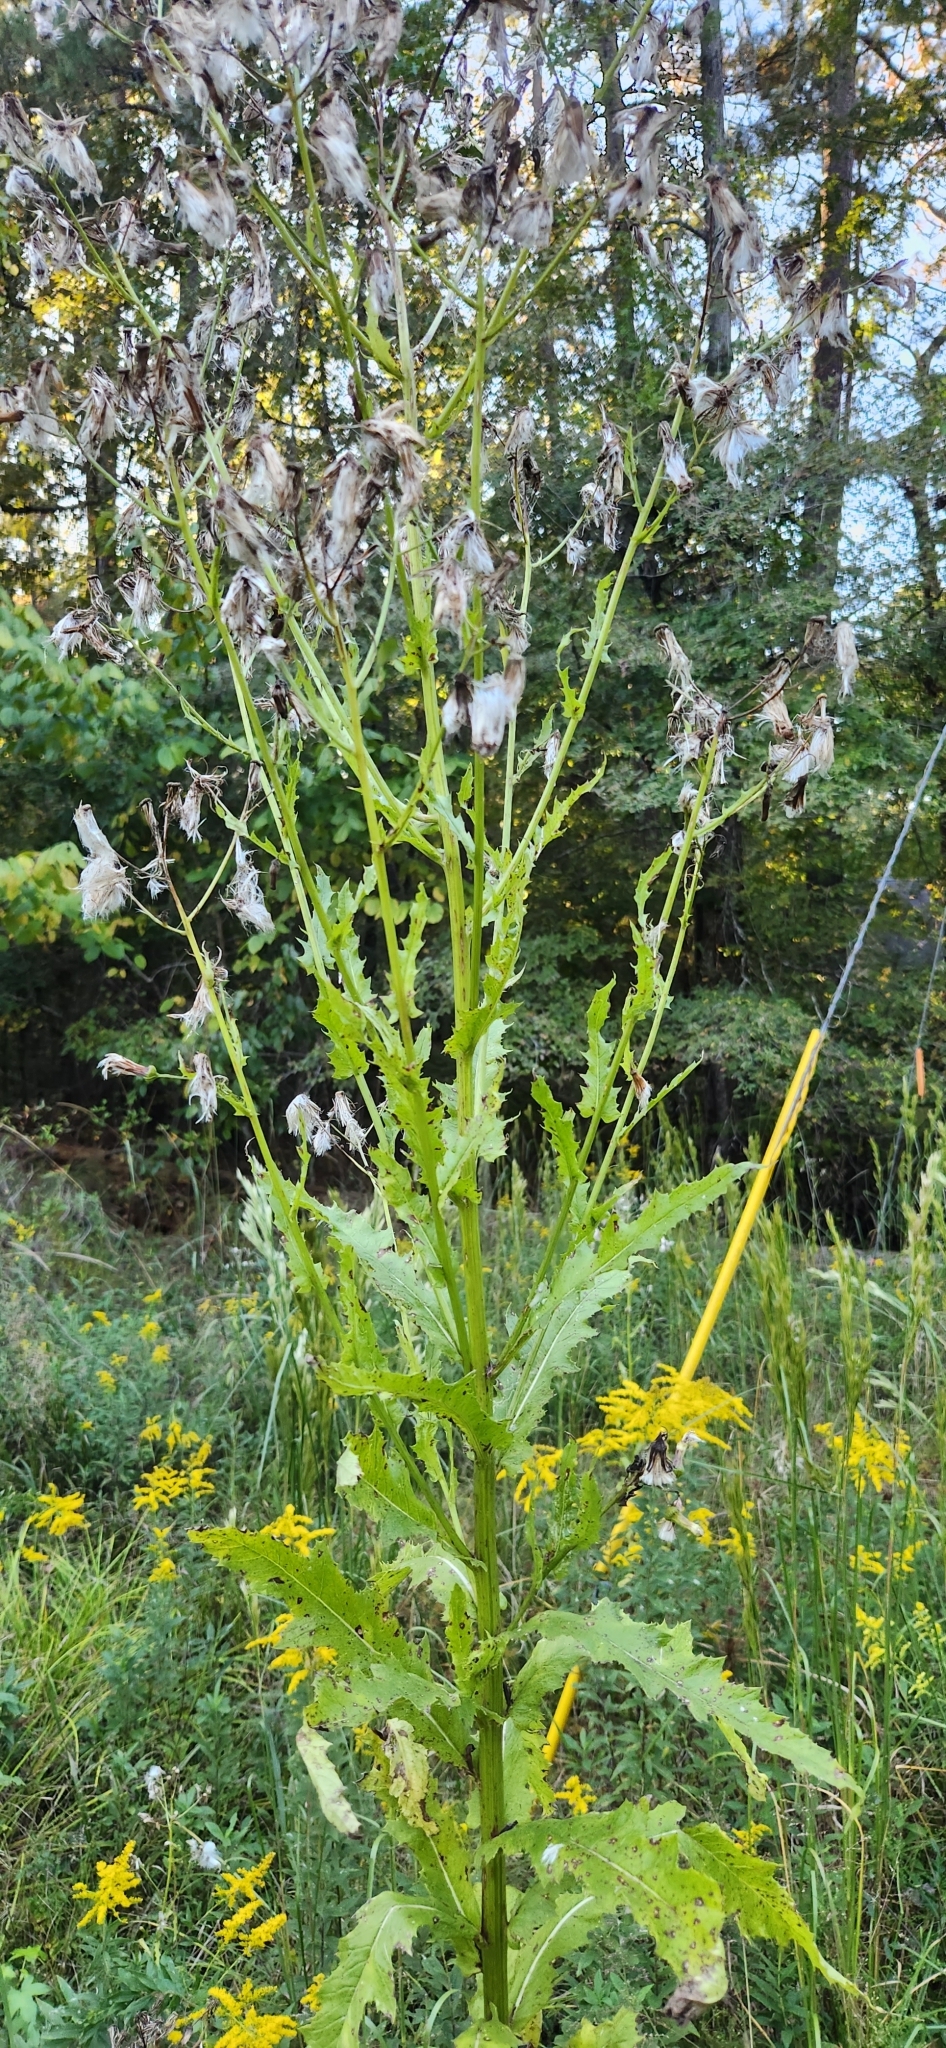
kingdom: Plantae
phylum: Tracheophyta
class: Magnoliopsida
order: Asterales
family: Asteraceae
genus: Erechtites
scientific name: Erechtites hieraciifolius
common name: American burnweed
